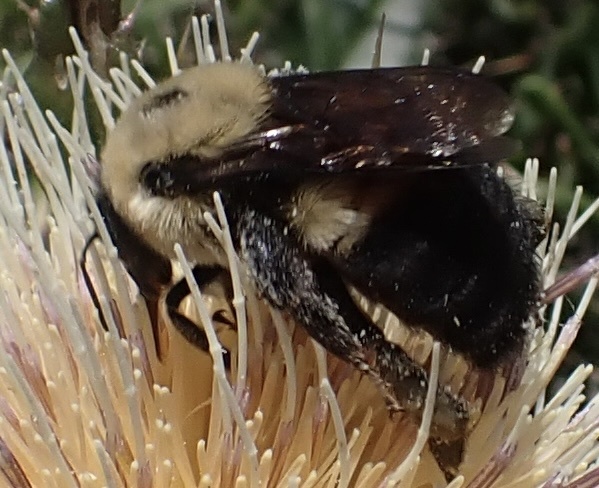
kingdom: Animalia
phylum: Arthropoda
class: Insecta
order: Hymenoptera
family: Apidae
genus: Bombus
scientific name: Bombus griseocollis
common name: Brown-belted bumble bee
